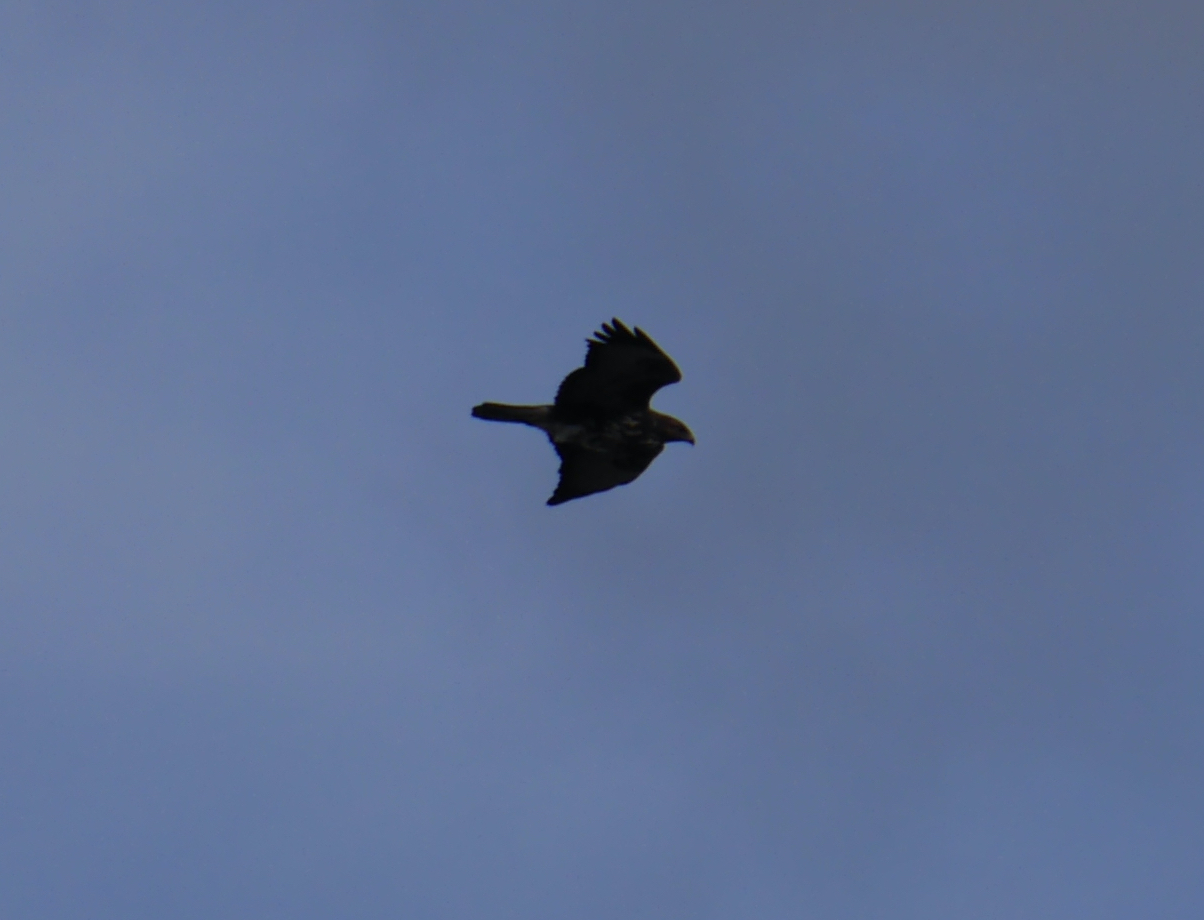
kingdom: Animalia
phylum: Chordata
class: Aves
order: Accipitriformes
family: Accipitridae
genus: Buteo
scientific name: Buteo buteo
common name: Common buzzard
